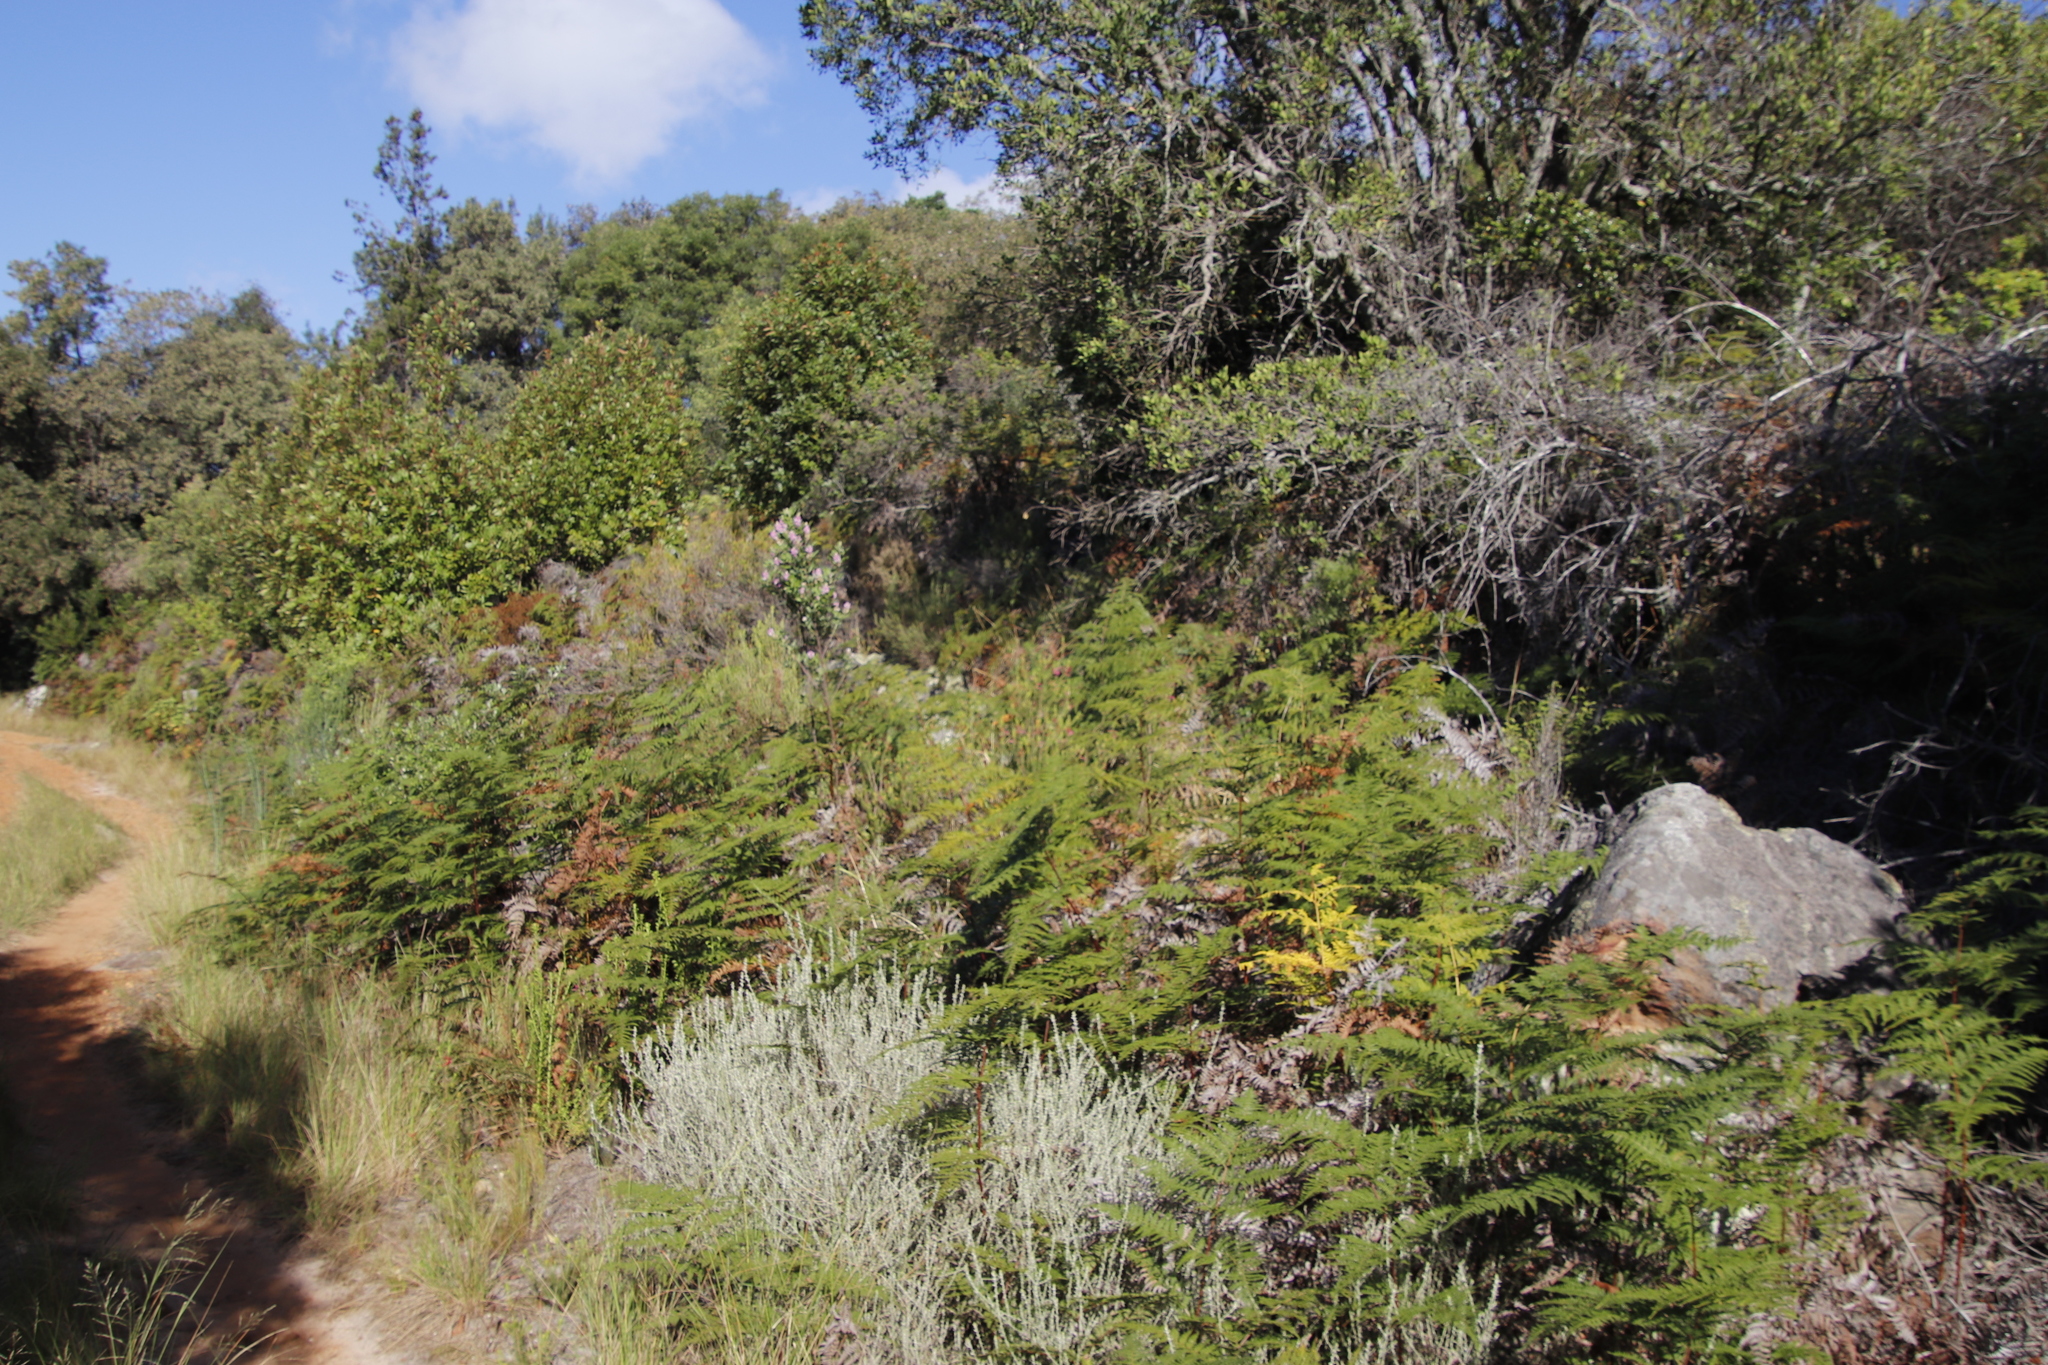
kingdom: Plantae
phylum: Tracheophyta
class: Polypodiopsida
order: Polypodiales
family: Dennstaedtiaceae
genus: Pteridium
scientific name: Pteridium aquilinum
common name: Bracken
